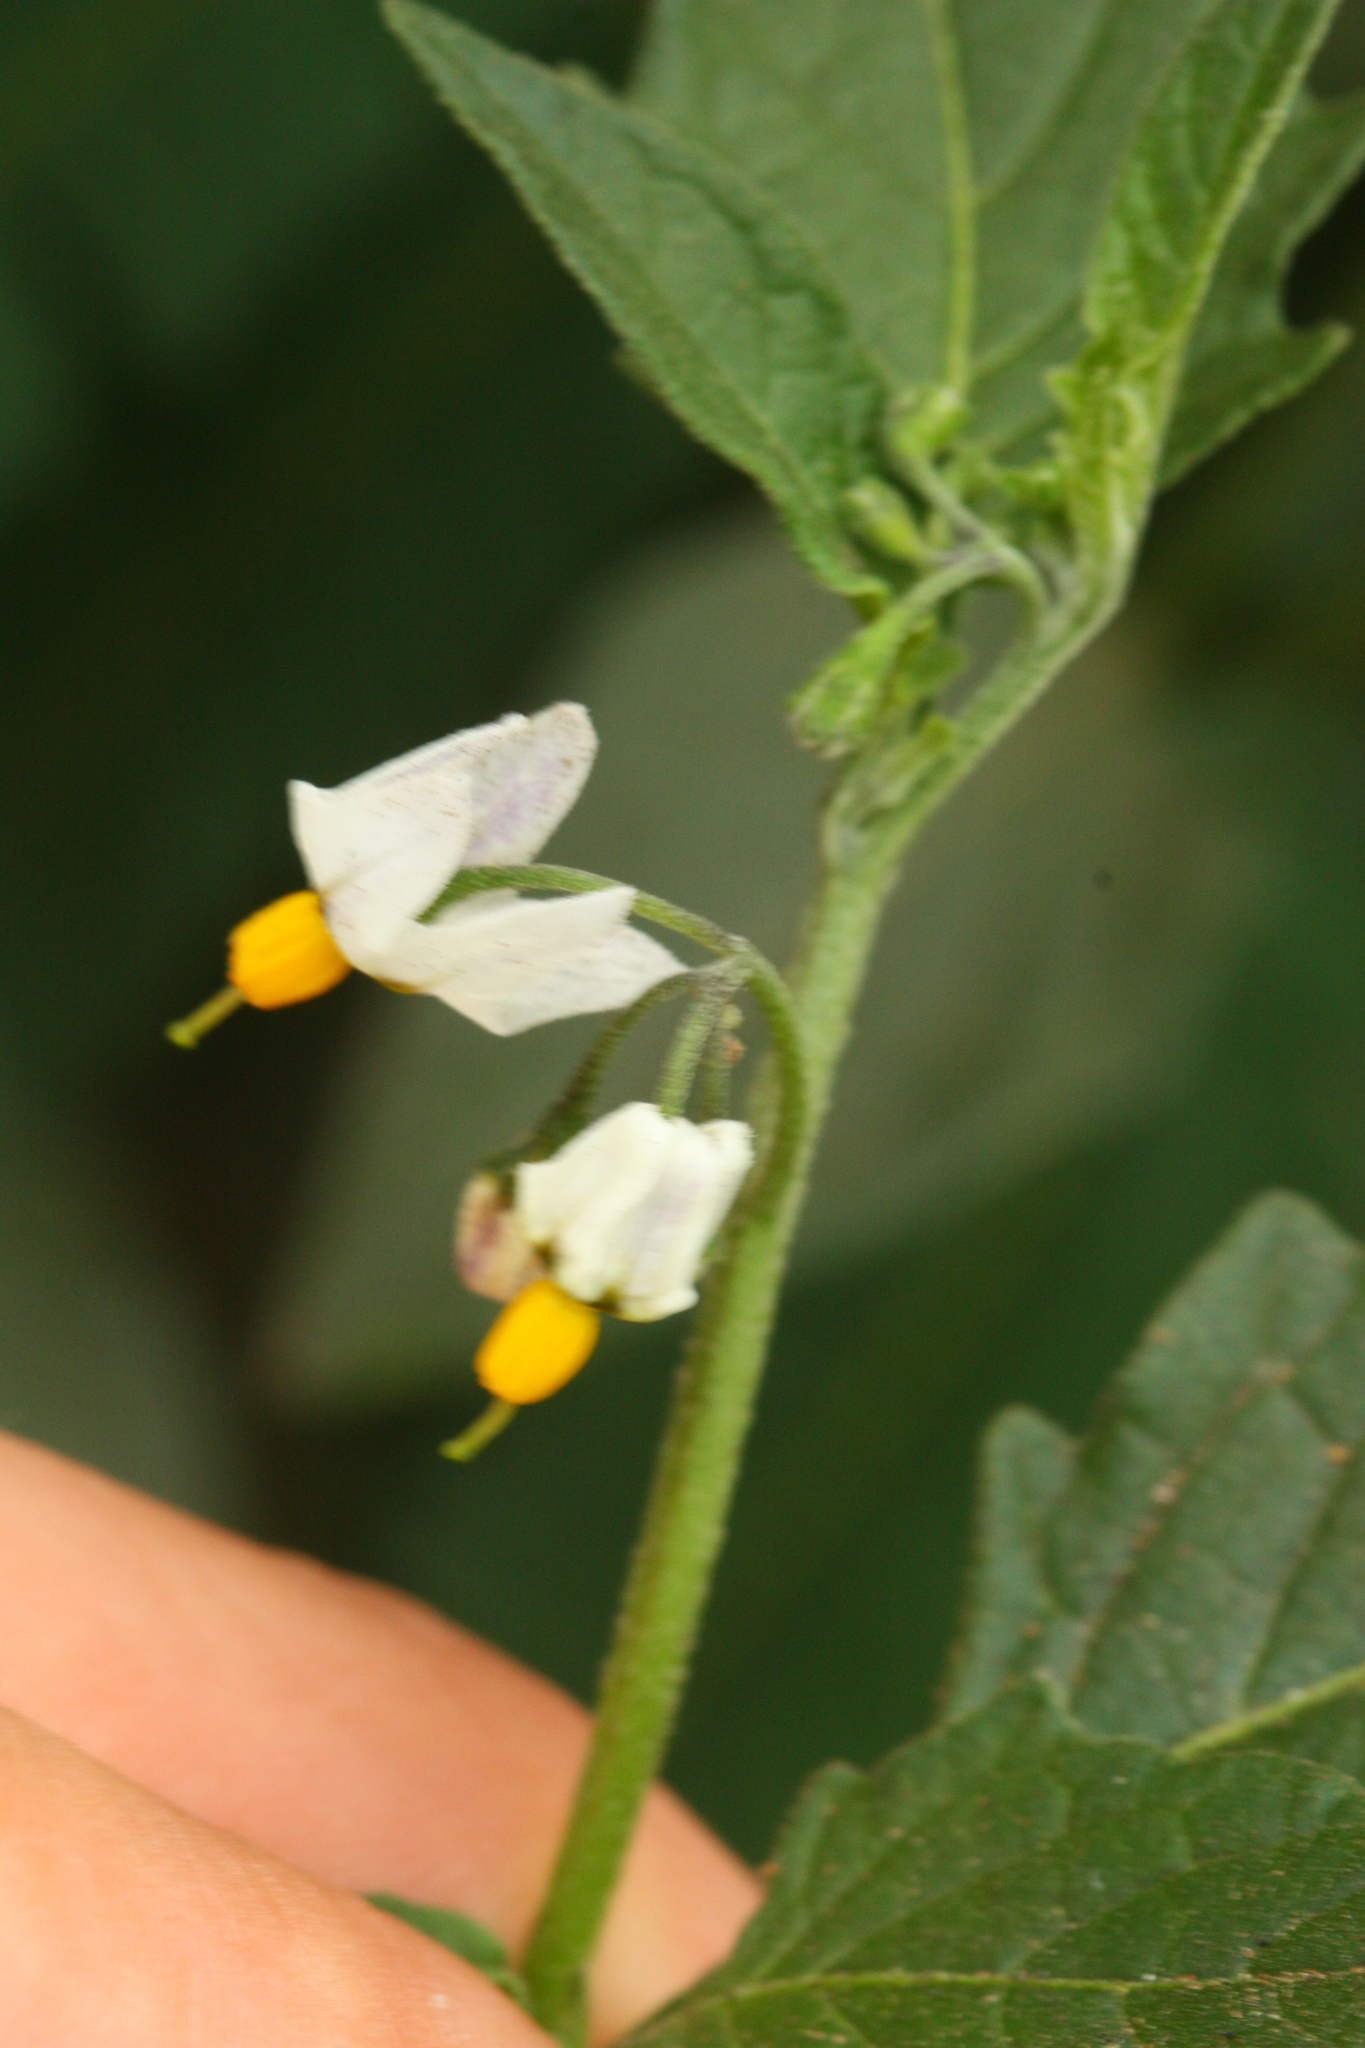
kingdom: Plantae
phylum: Tracheophyta
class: Magnoliopsida
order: Solanales
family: Solanaceae
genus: Solanum
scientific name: Solanum furcatum
